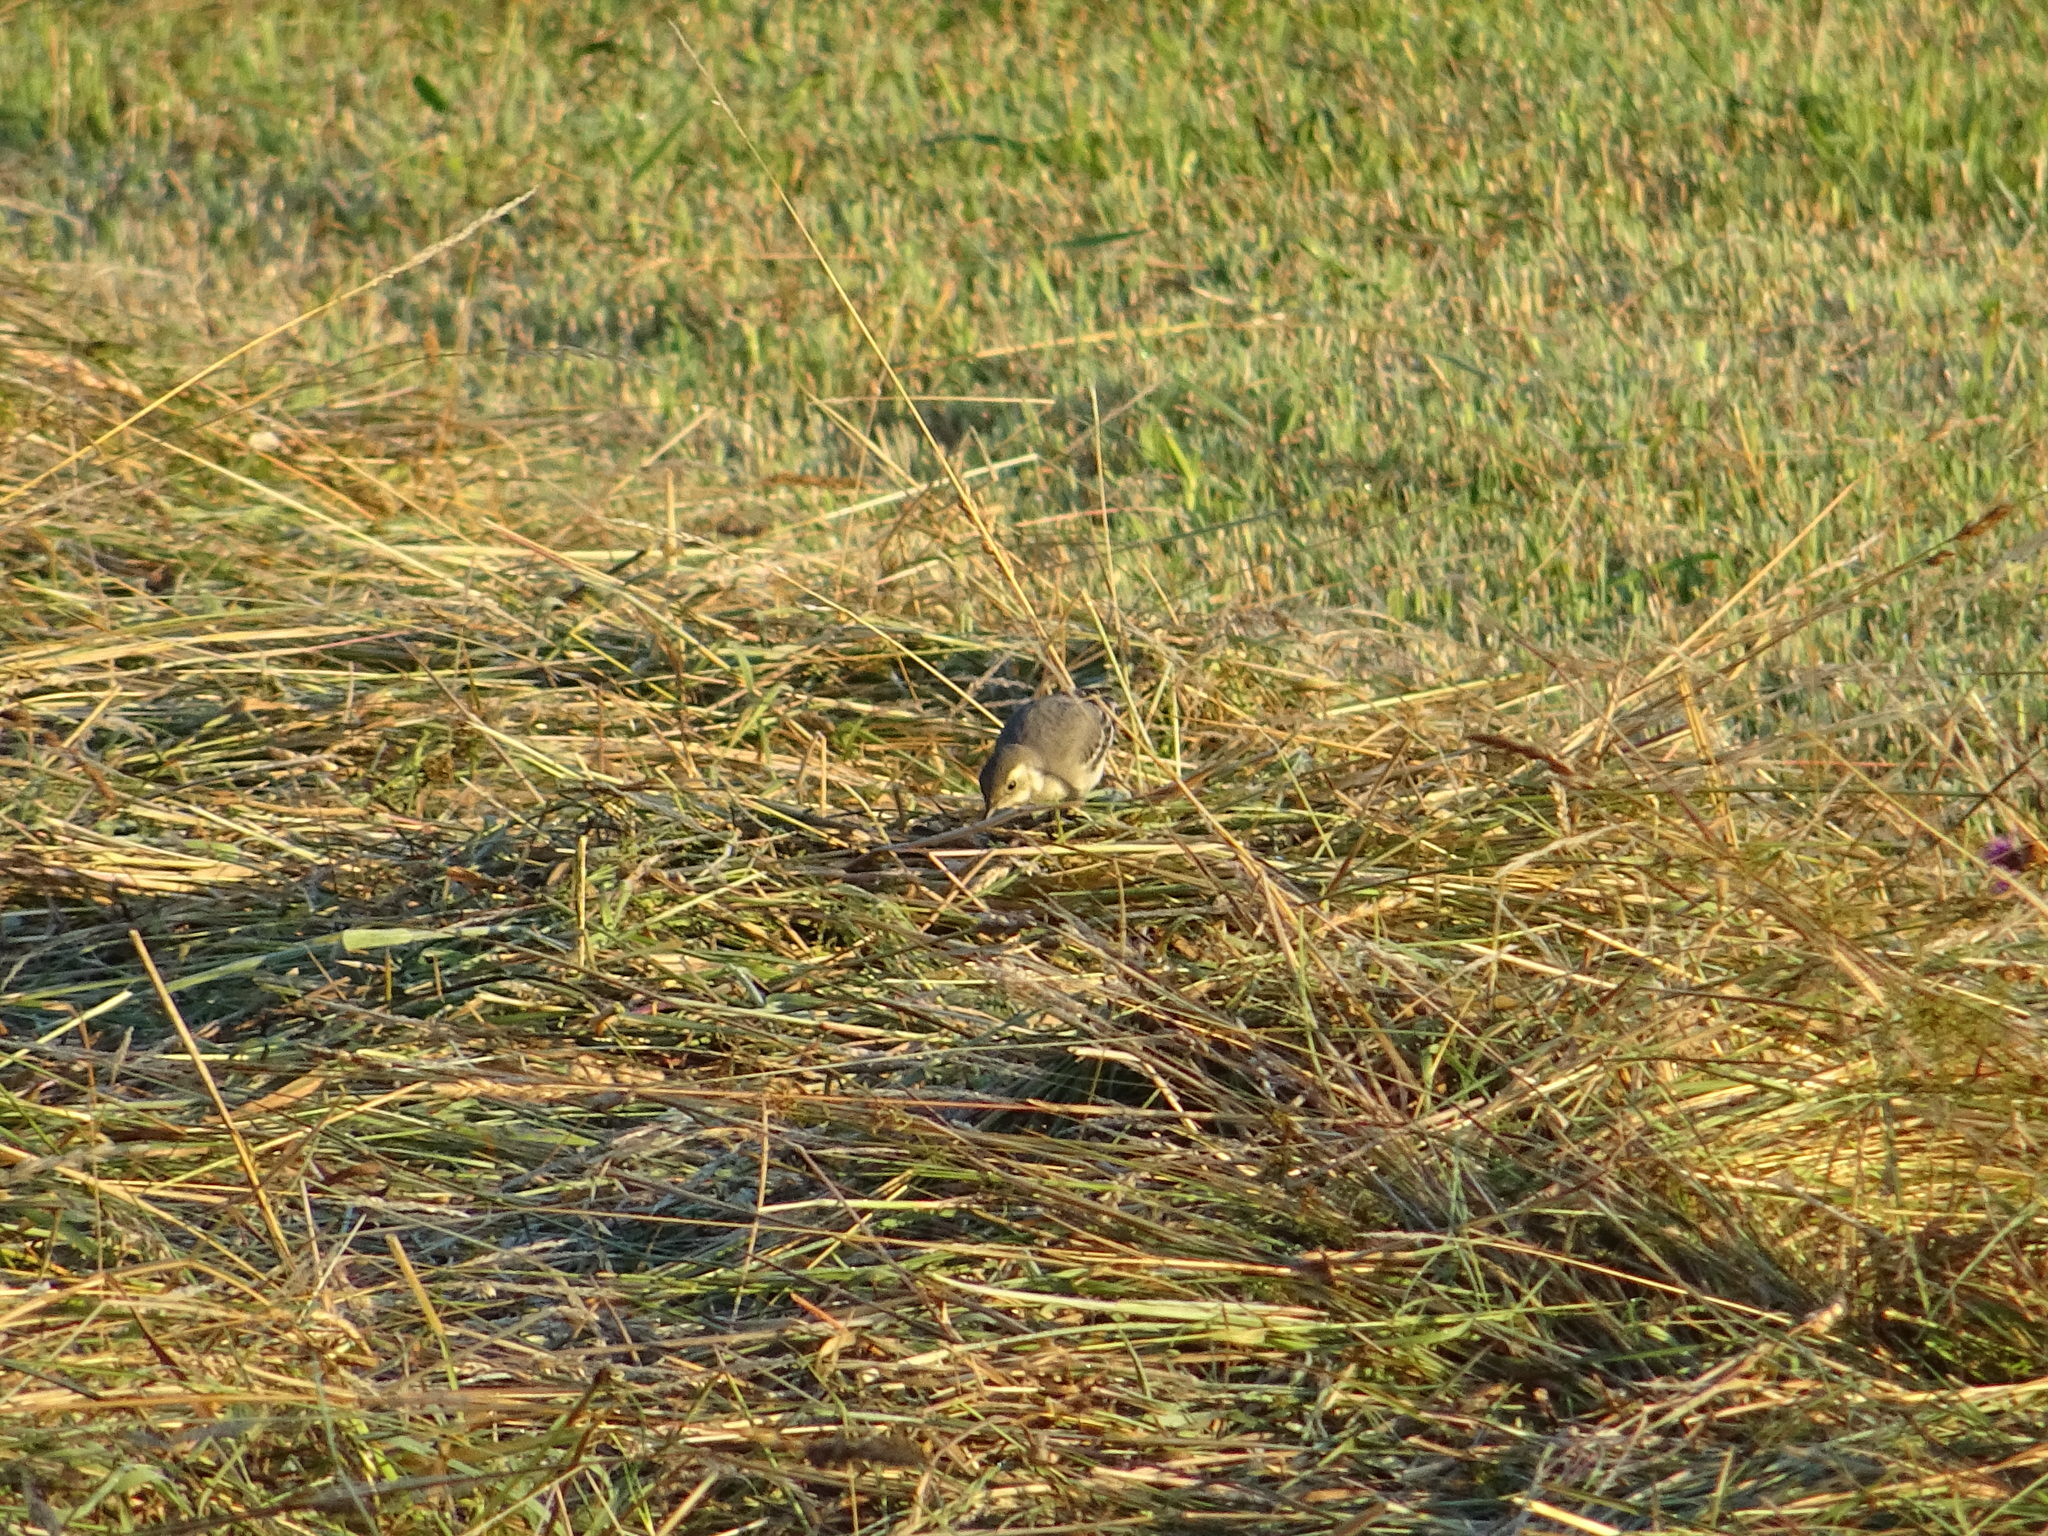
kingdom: Animalia
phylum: Chordata
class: Aves
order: Passeriformes
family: Motacillidae
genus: Motacilla
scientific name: Motacilla alba
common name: White wagtail
